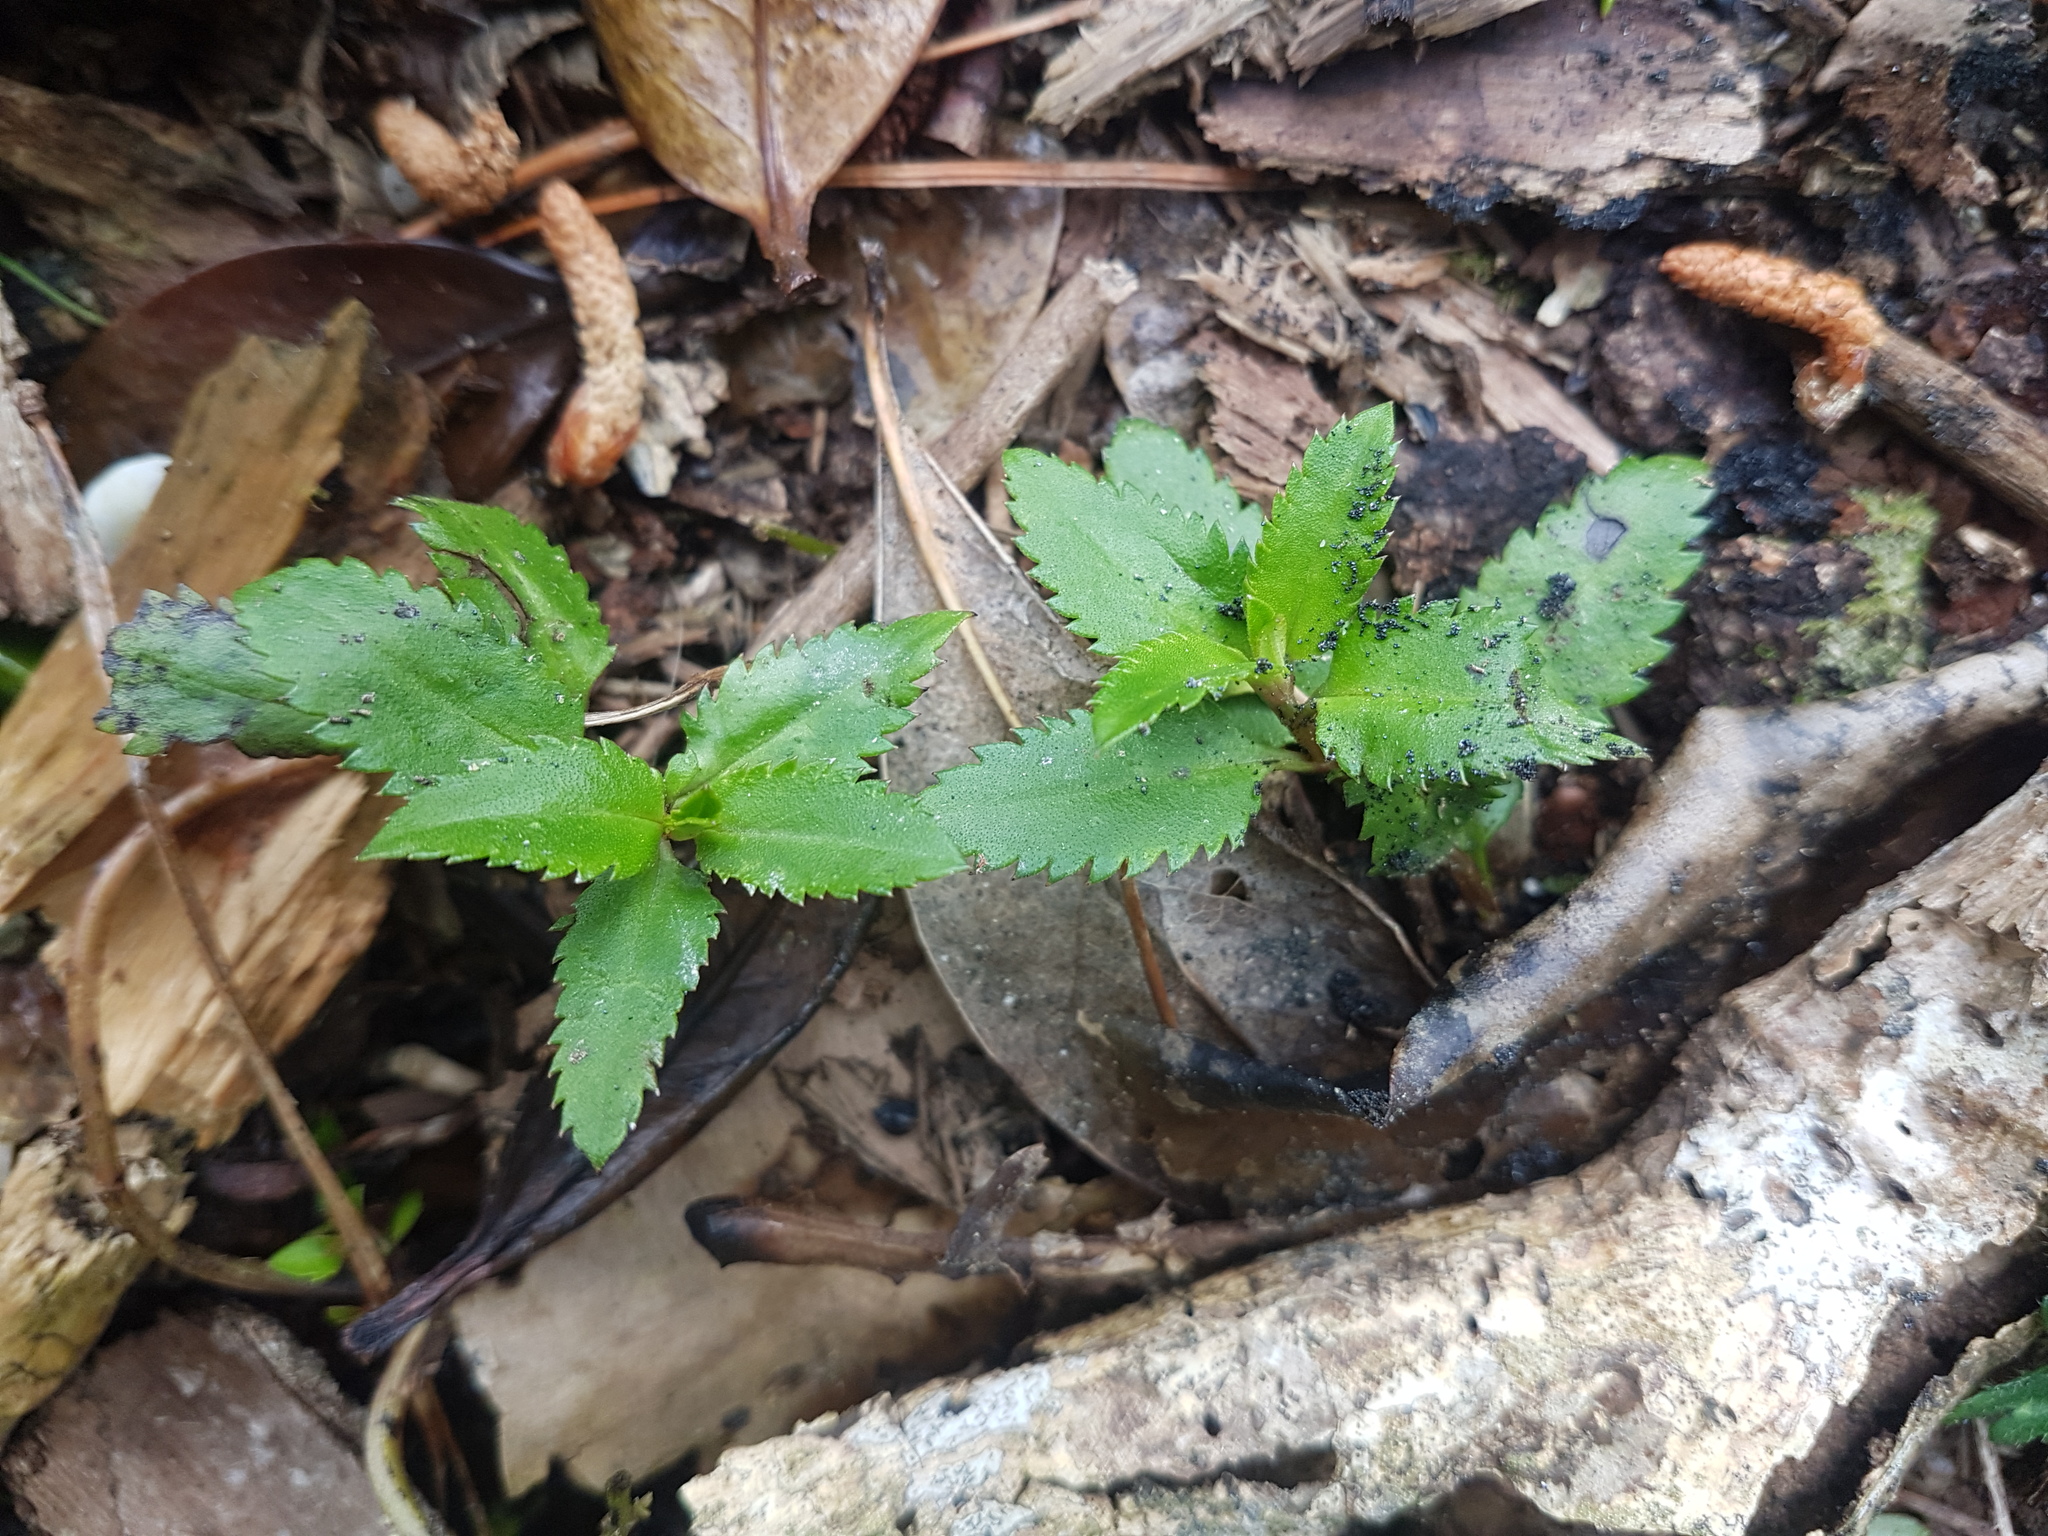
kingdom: Plantae
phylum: Tracheophyta
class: Magnoliopsida
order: Saxifragales
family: Haloragaceae
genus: Haloragis
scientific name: Haloragis erecta
